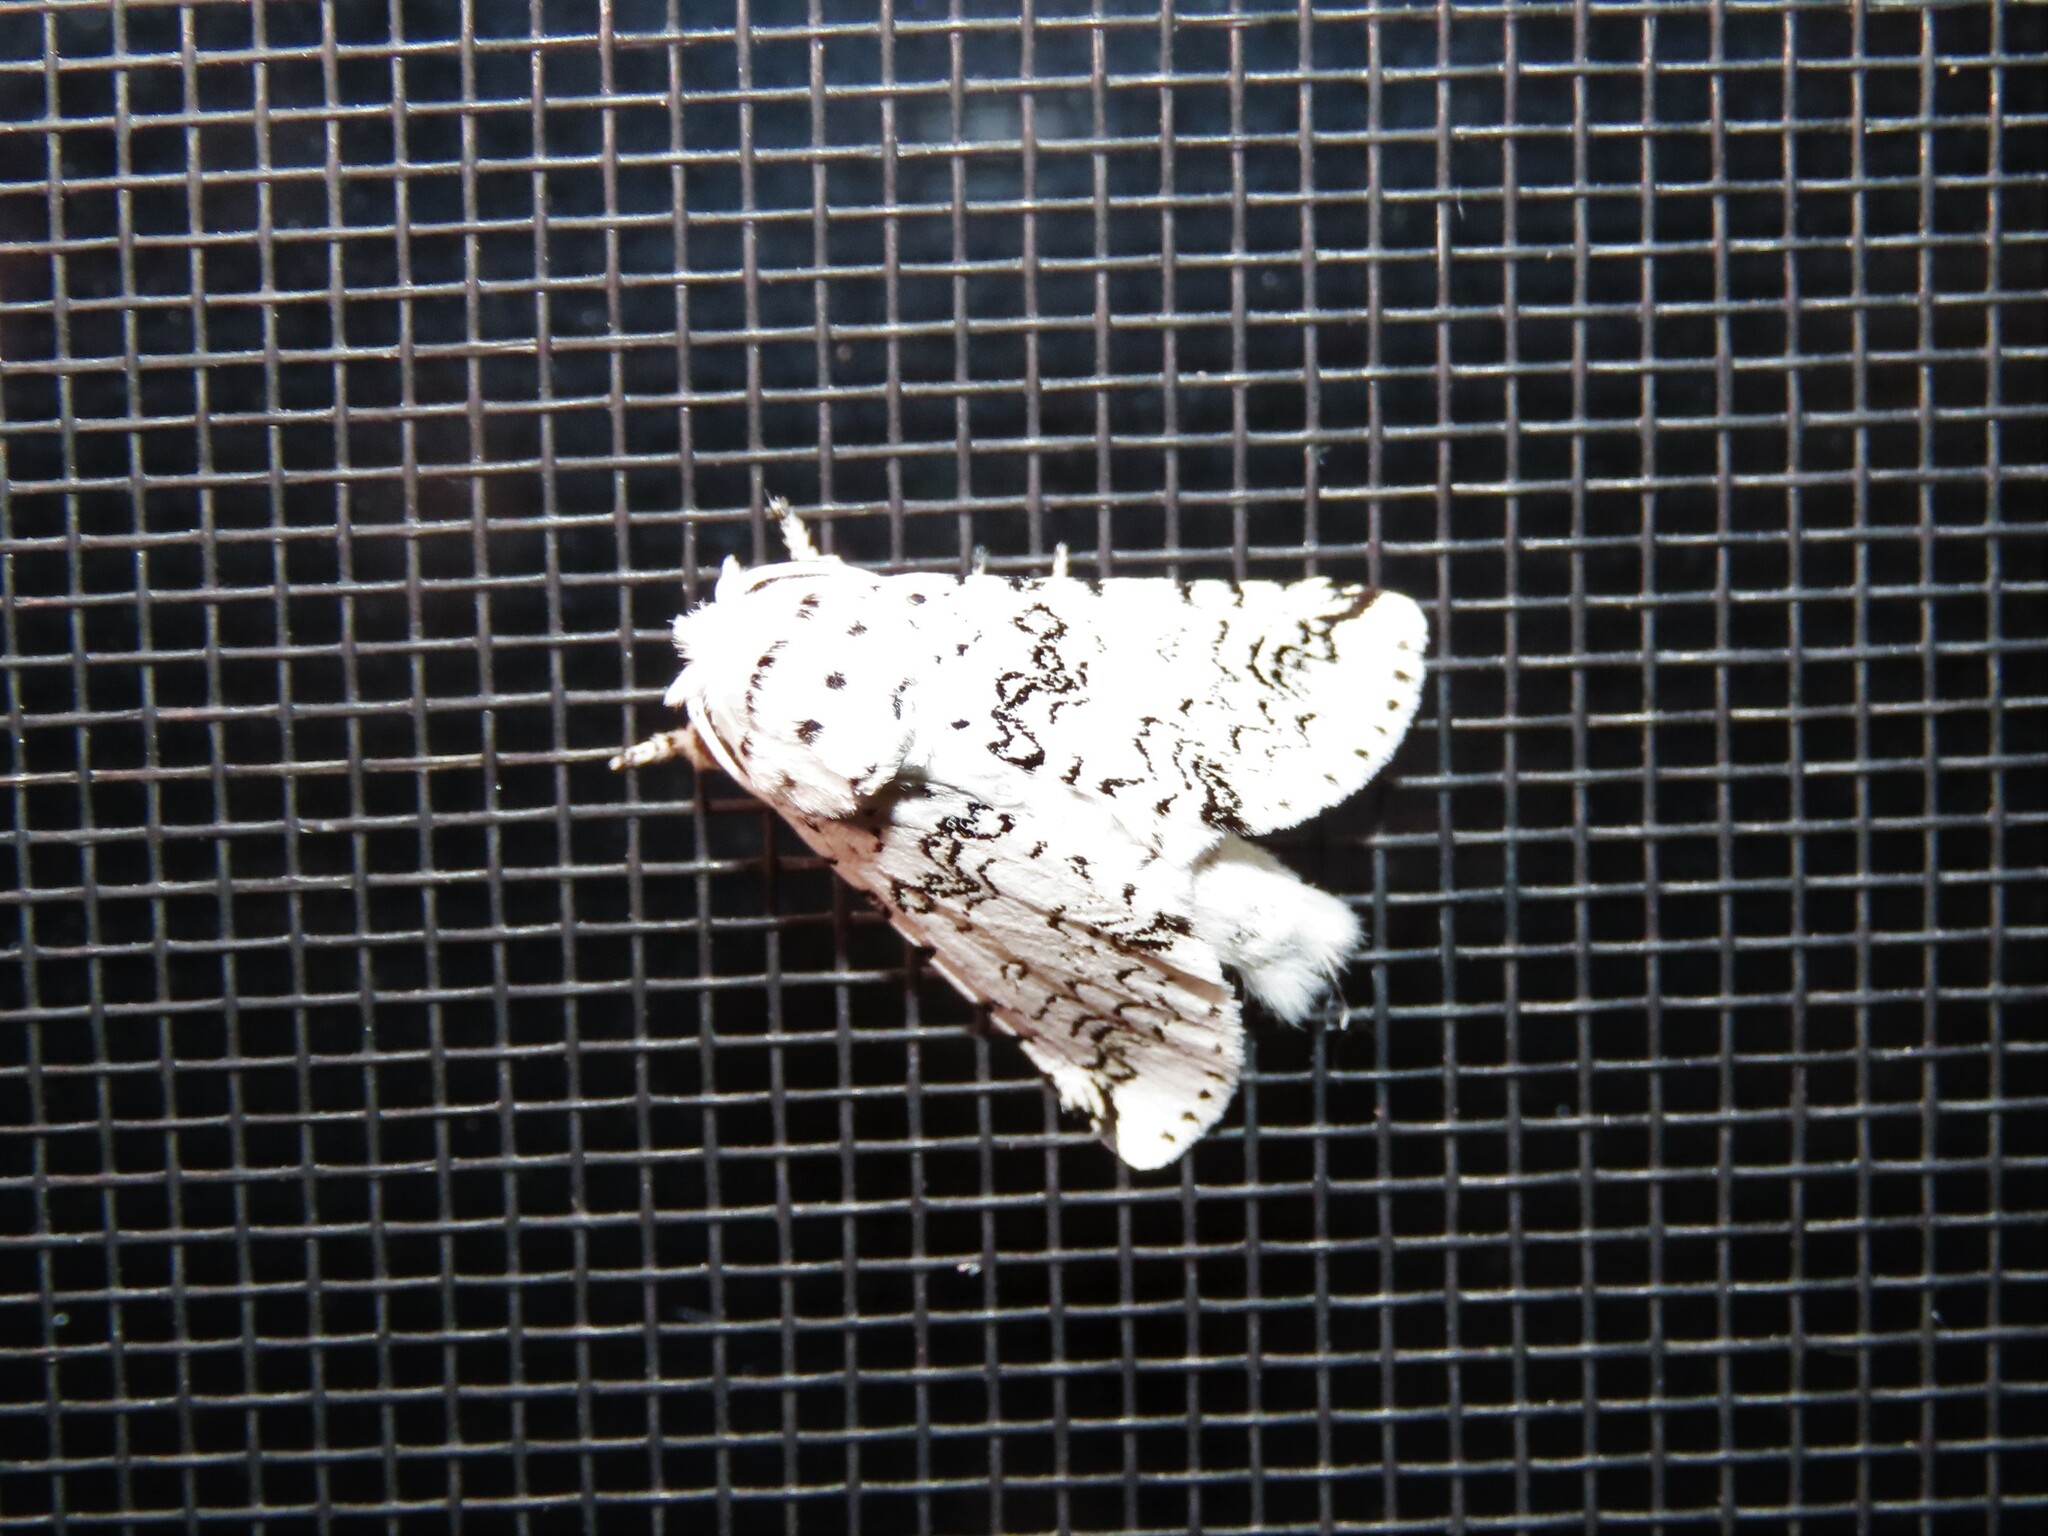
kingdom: Animalia
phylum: Arthropoda
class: Insecta
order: Lepidoptera
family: Notodontidae
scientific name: Notodontidae
